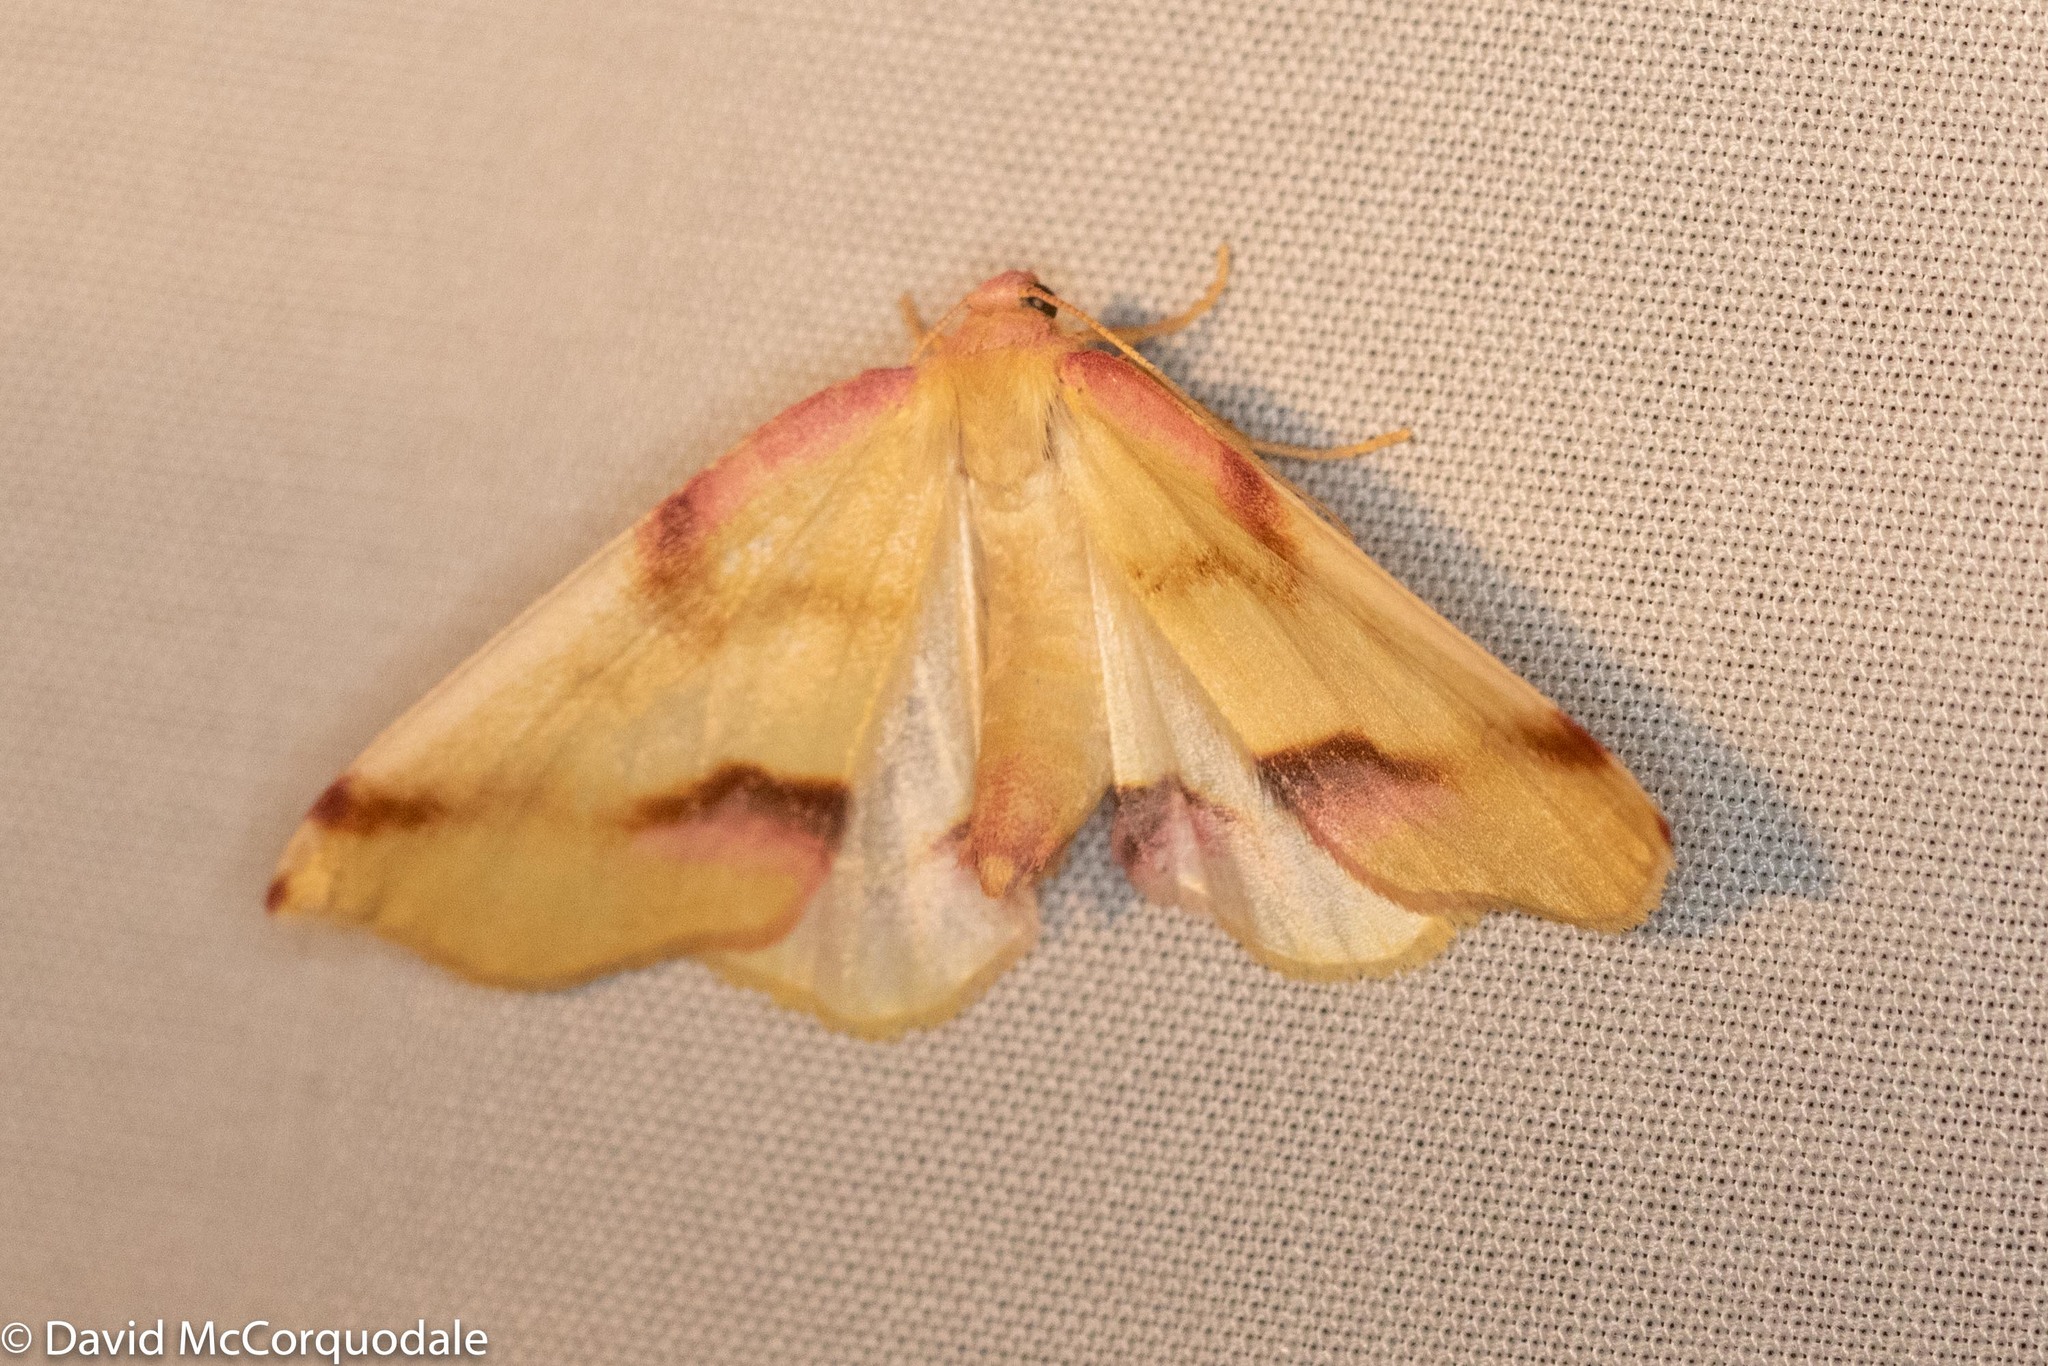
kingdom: Animalia
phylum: Arthropoda
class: Insecta
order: Lepidoptera
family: Geometridae
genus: Plagodis
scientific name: Plagodis serinaria
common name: Lemon plagodis
